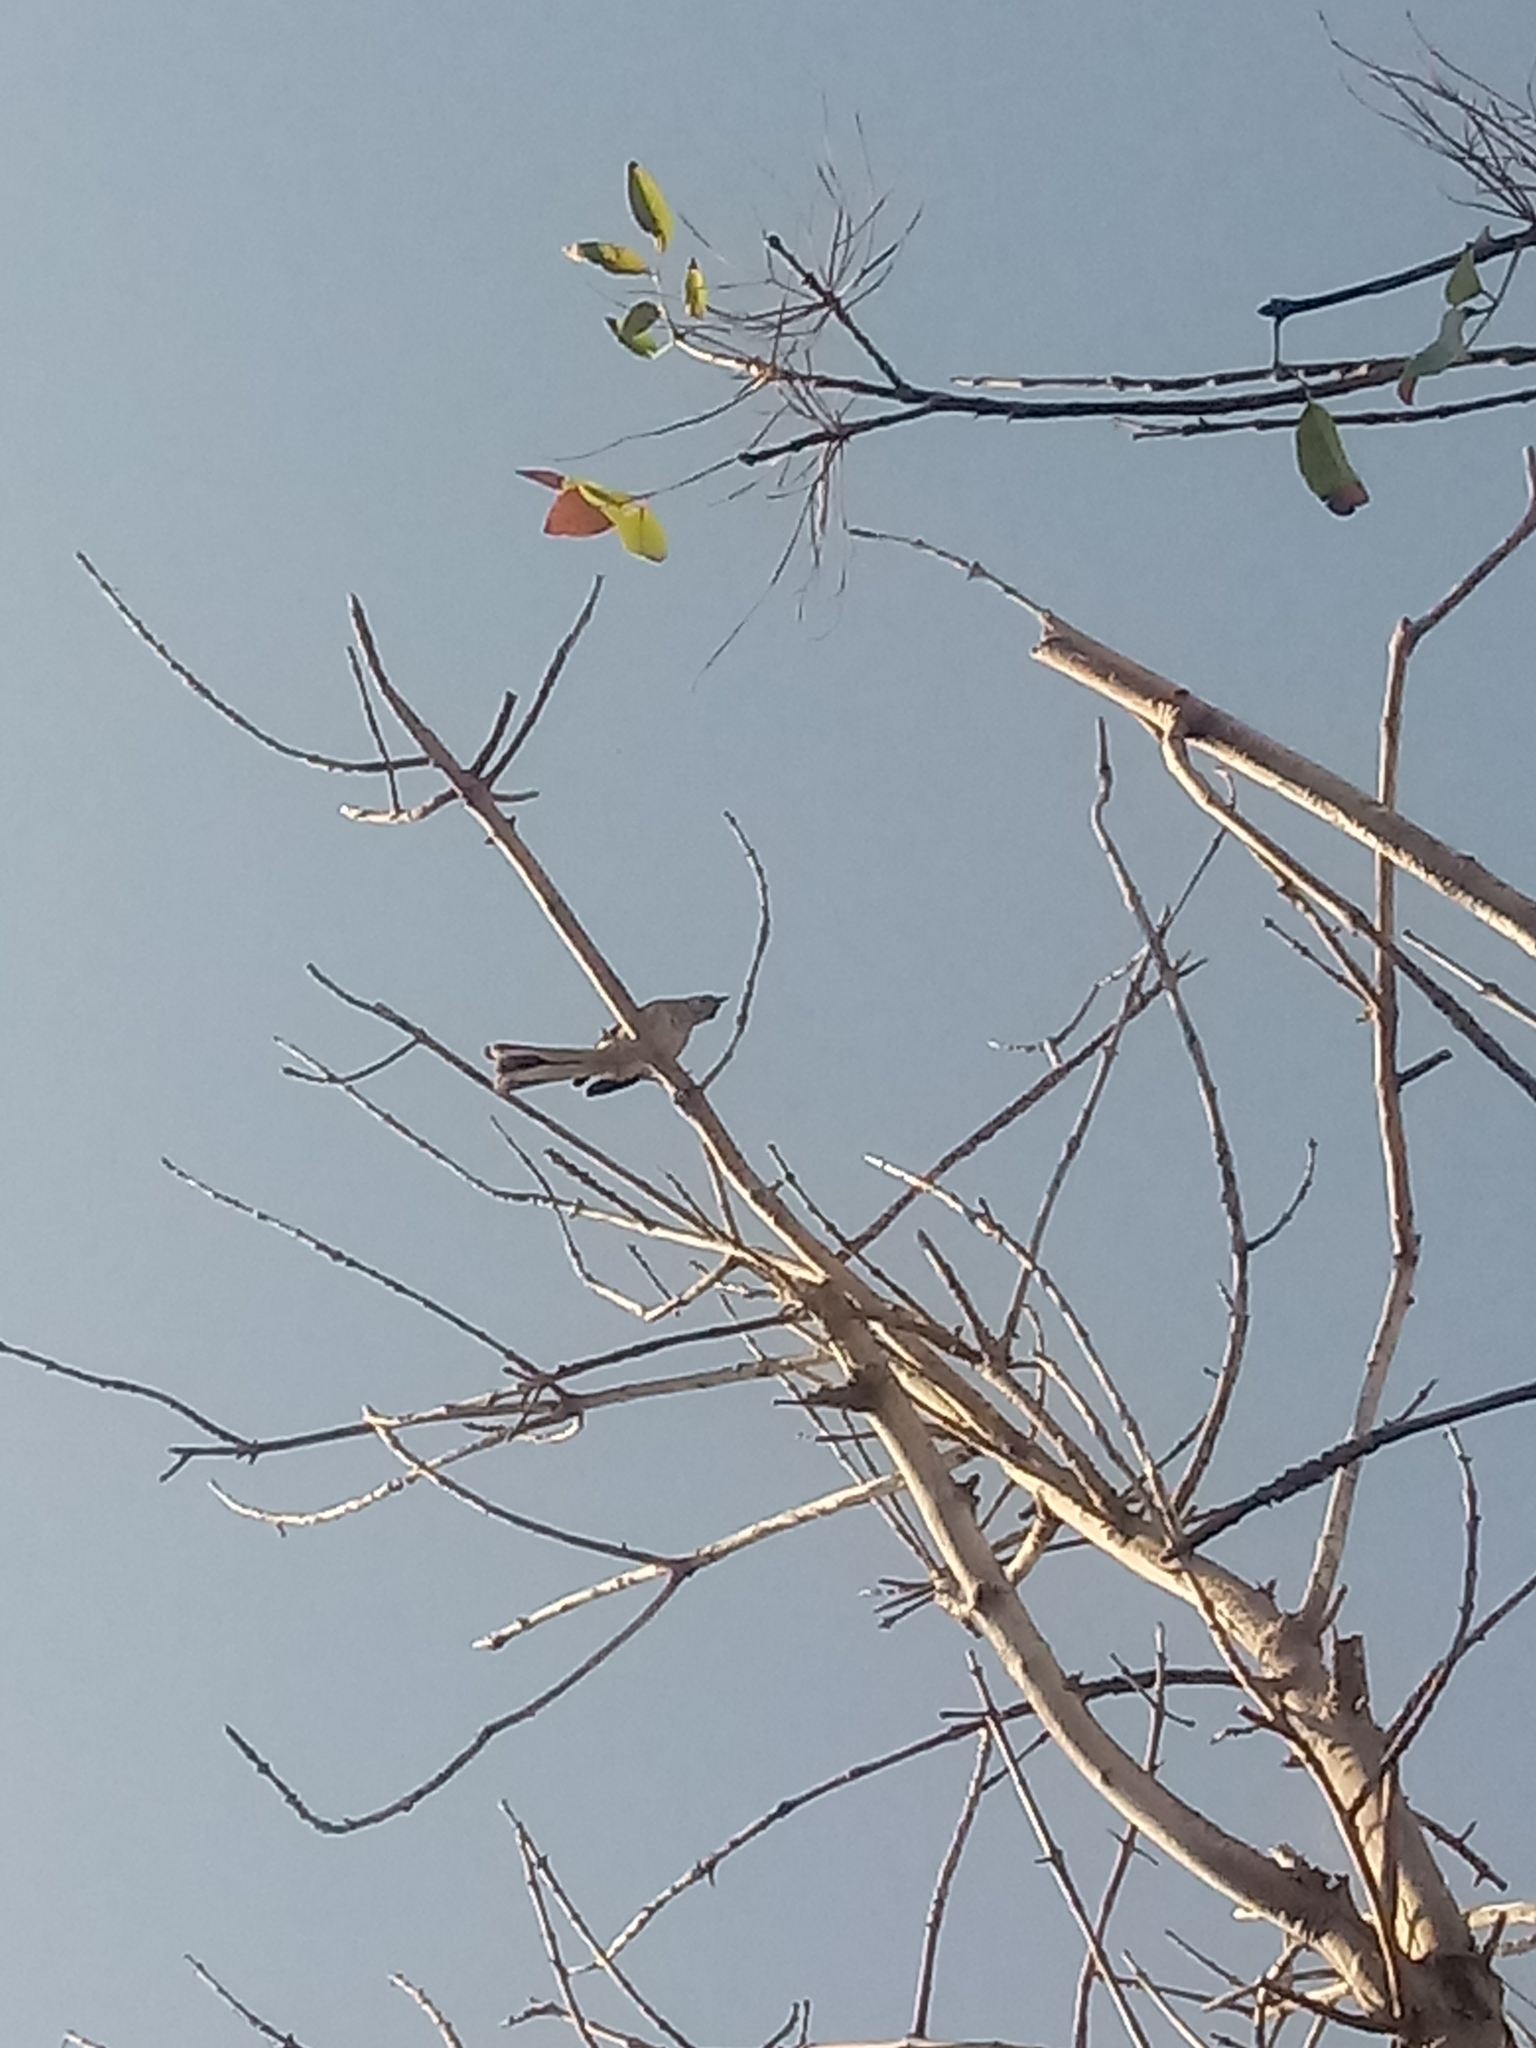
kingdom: Animalia
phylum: Chordata
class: Aves
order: Passeriformes
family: Mimidae
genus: Mimus
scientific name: Mimus polyglottos
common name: Northern mockingbird
